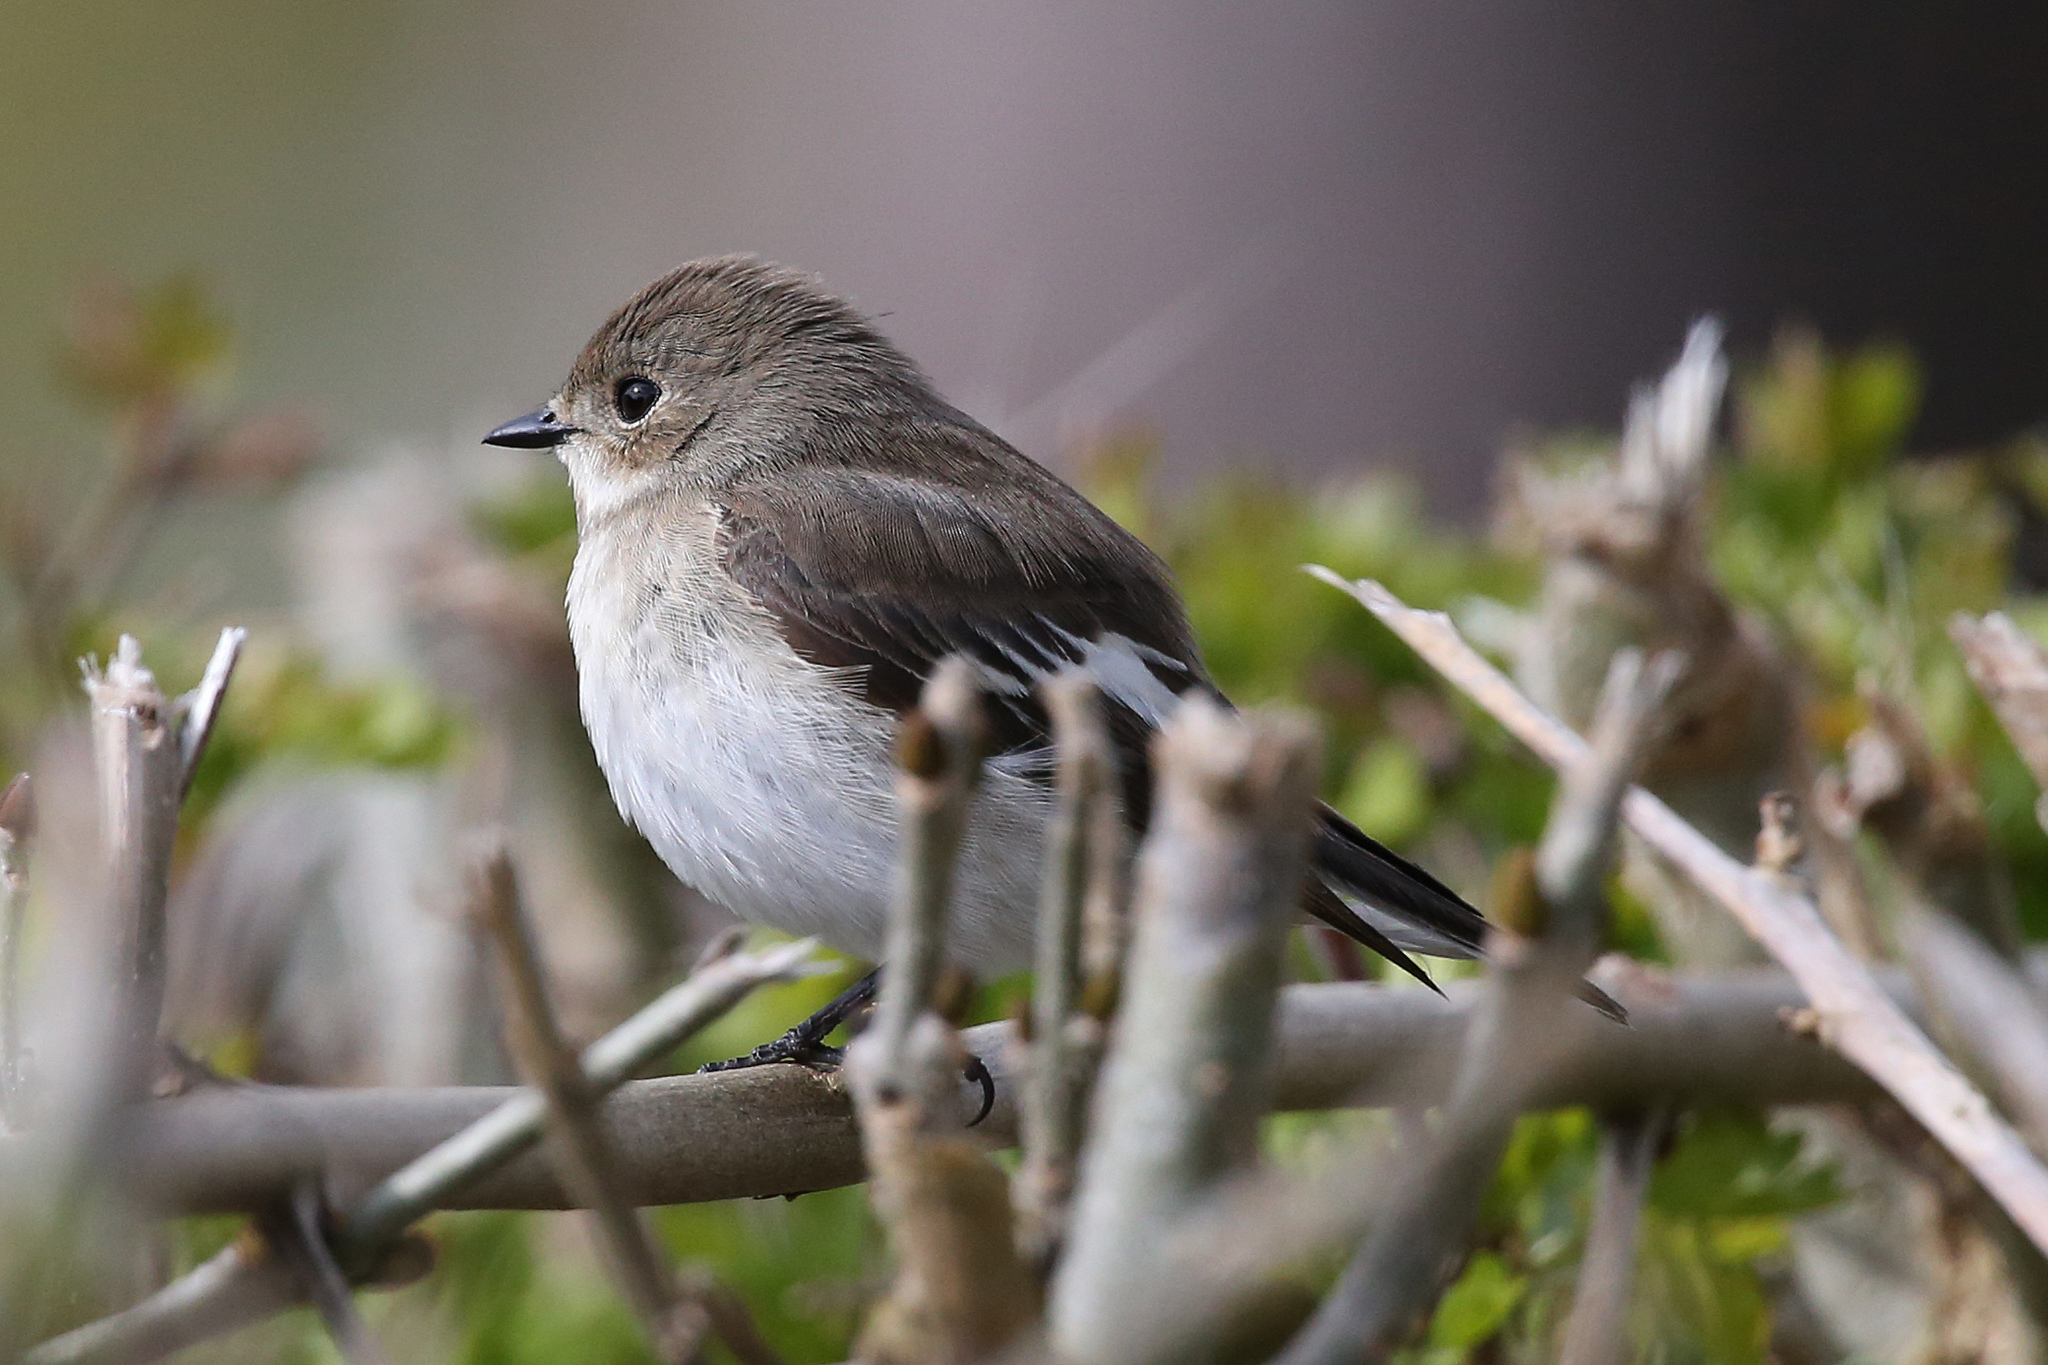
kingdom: Animalia
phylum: Chordata
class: Aves
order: Passeriformes
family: Muscicapidae
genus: Ficedula
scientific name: Ficedula hypoleuca
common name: European pied flycatcher
